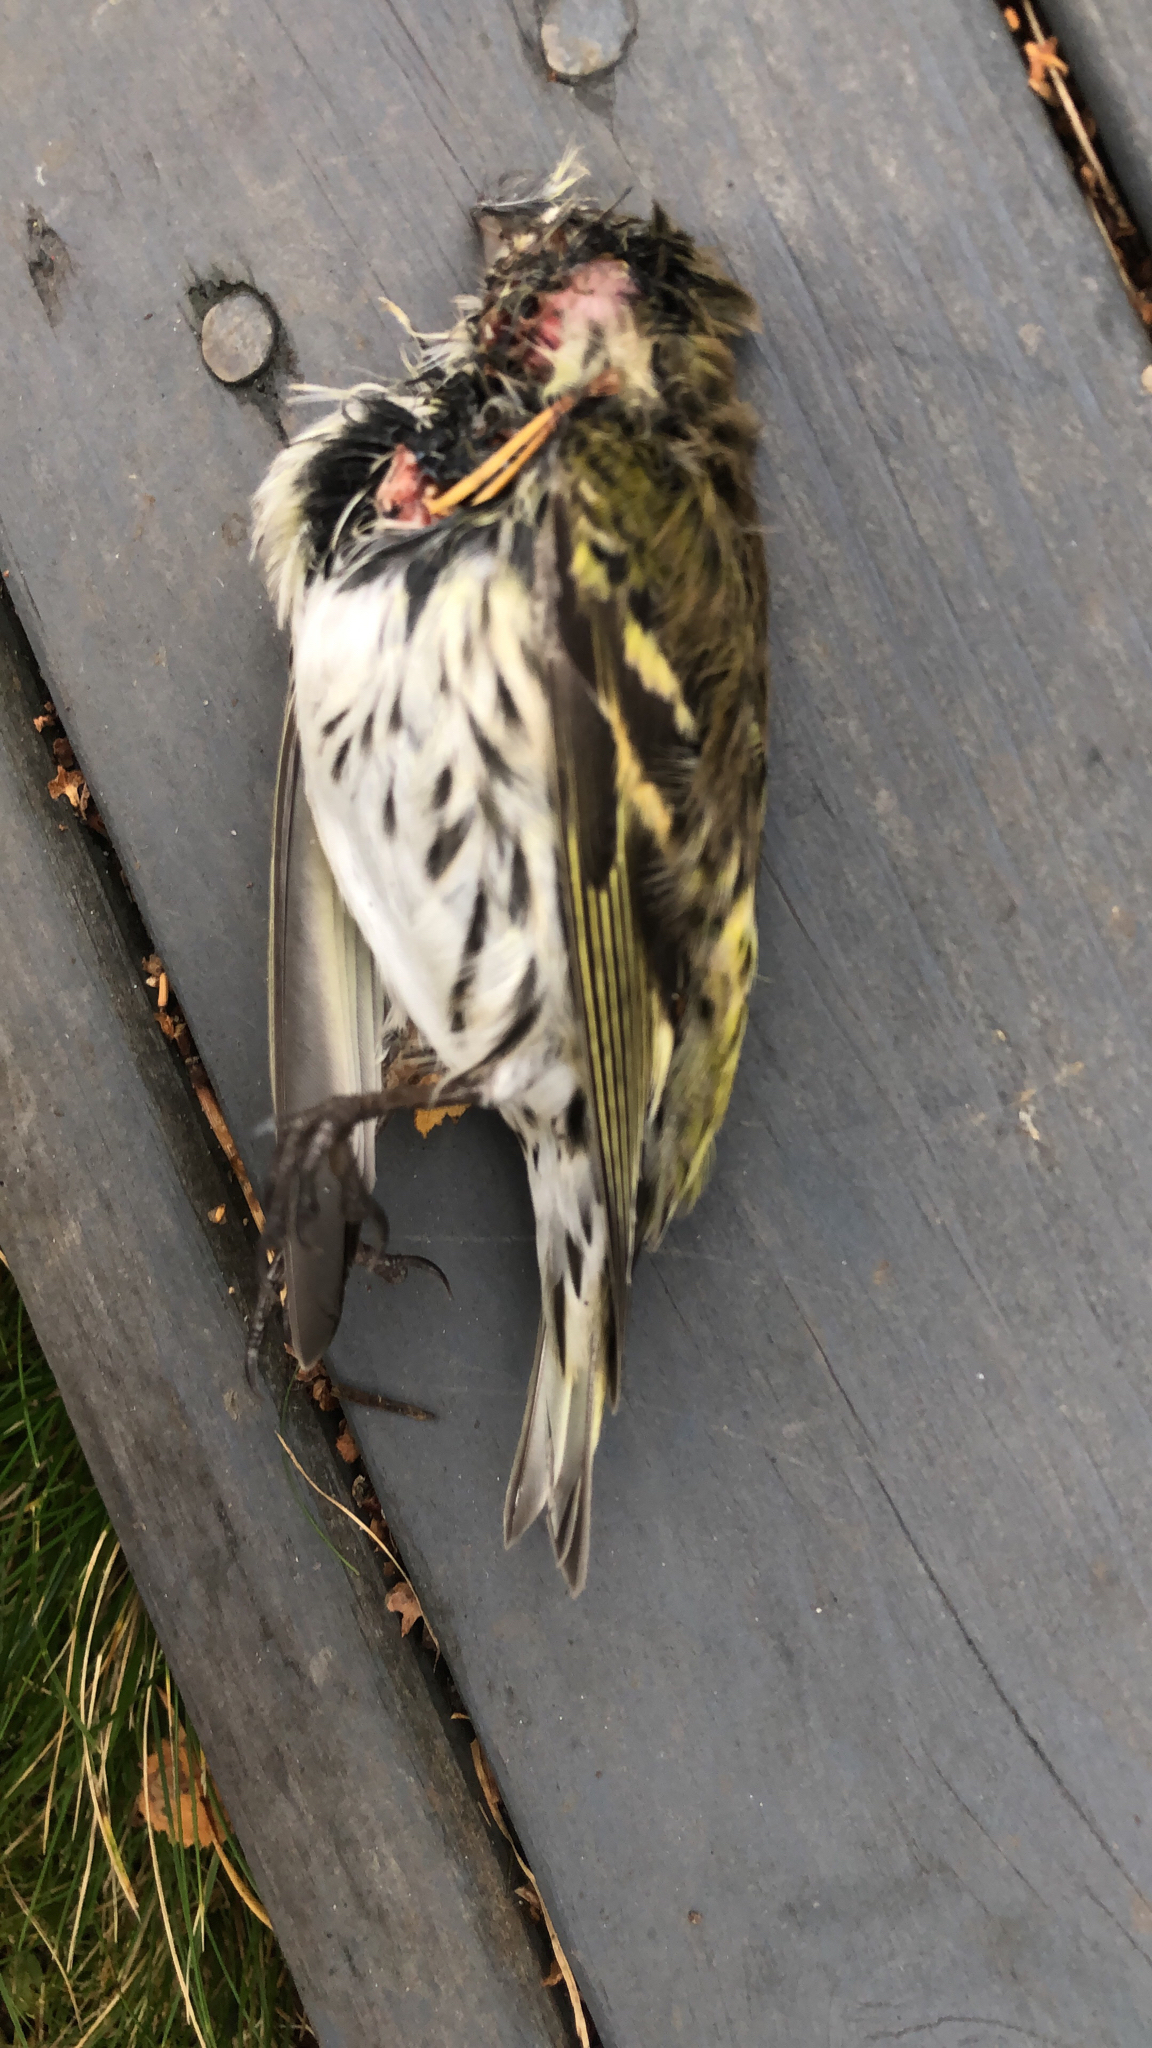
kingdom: Animalia
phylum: Chordata
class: Aves
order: Passeriformes
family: Fringillidae
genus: Spinus
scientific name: Spinus spinus
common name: Eurasian siskin
